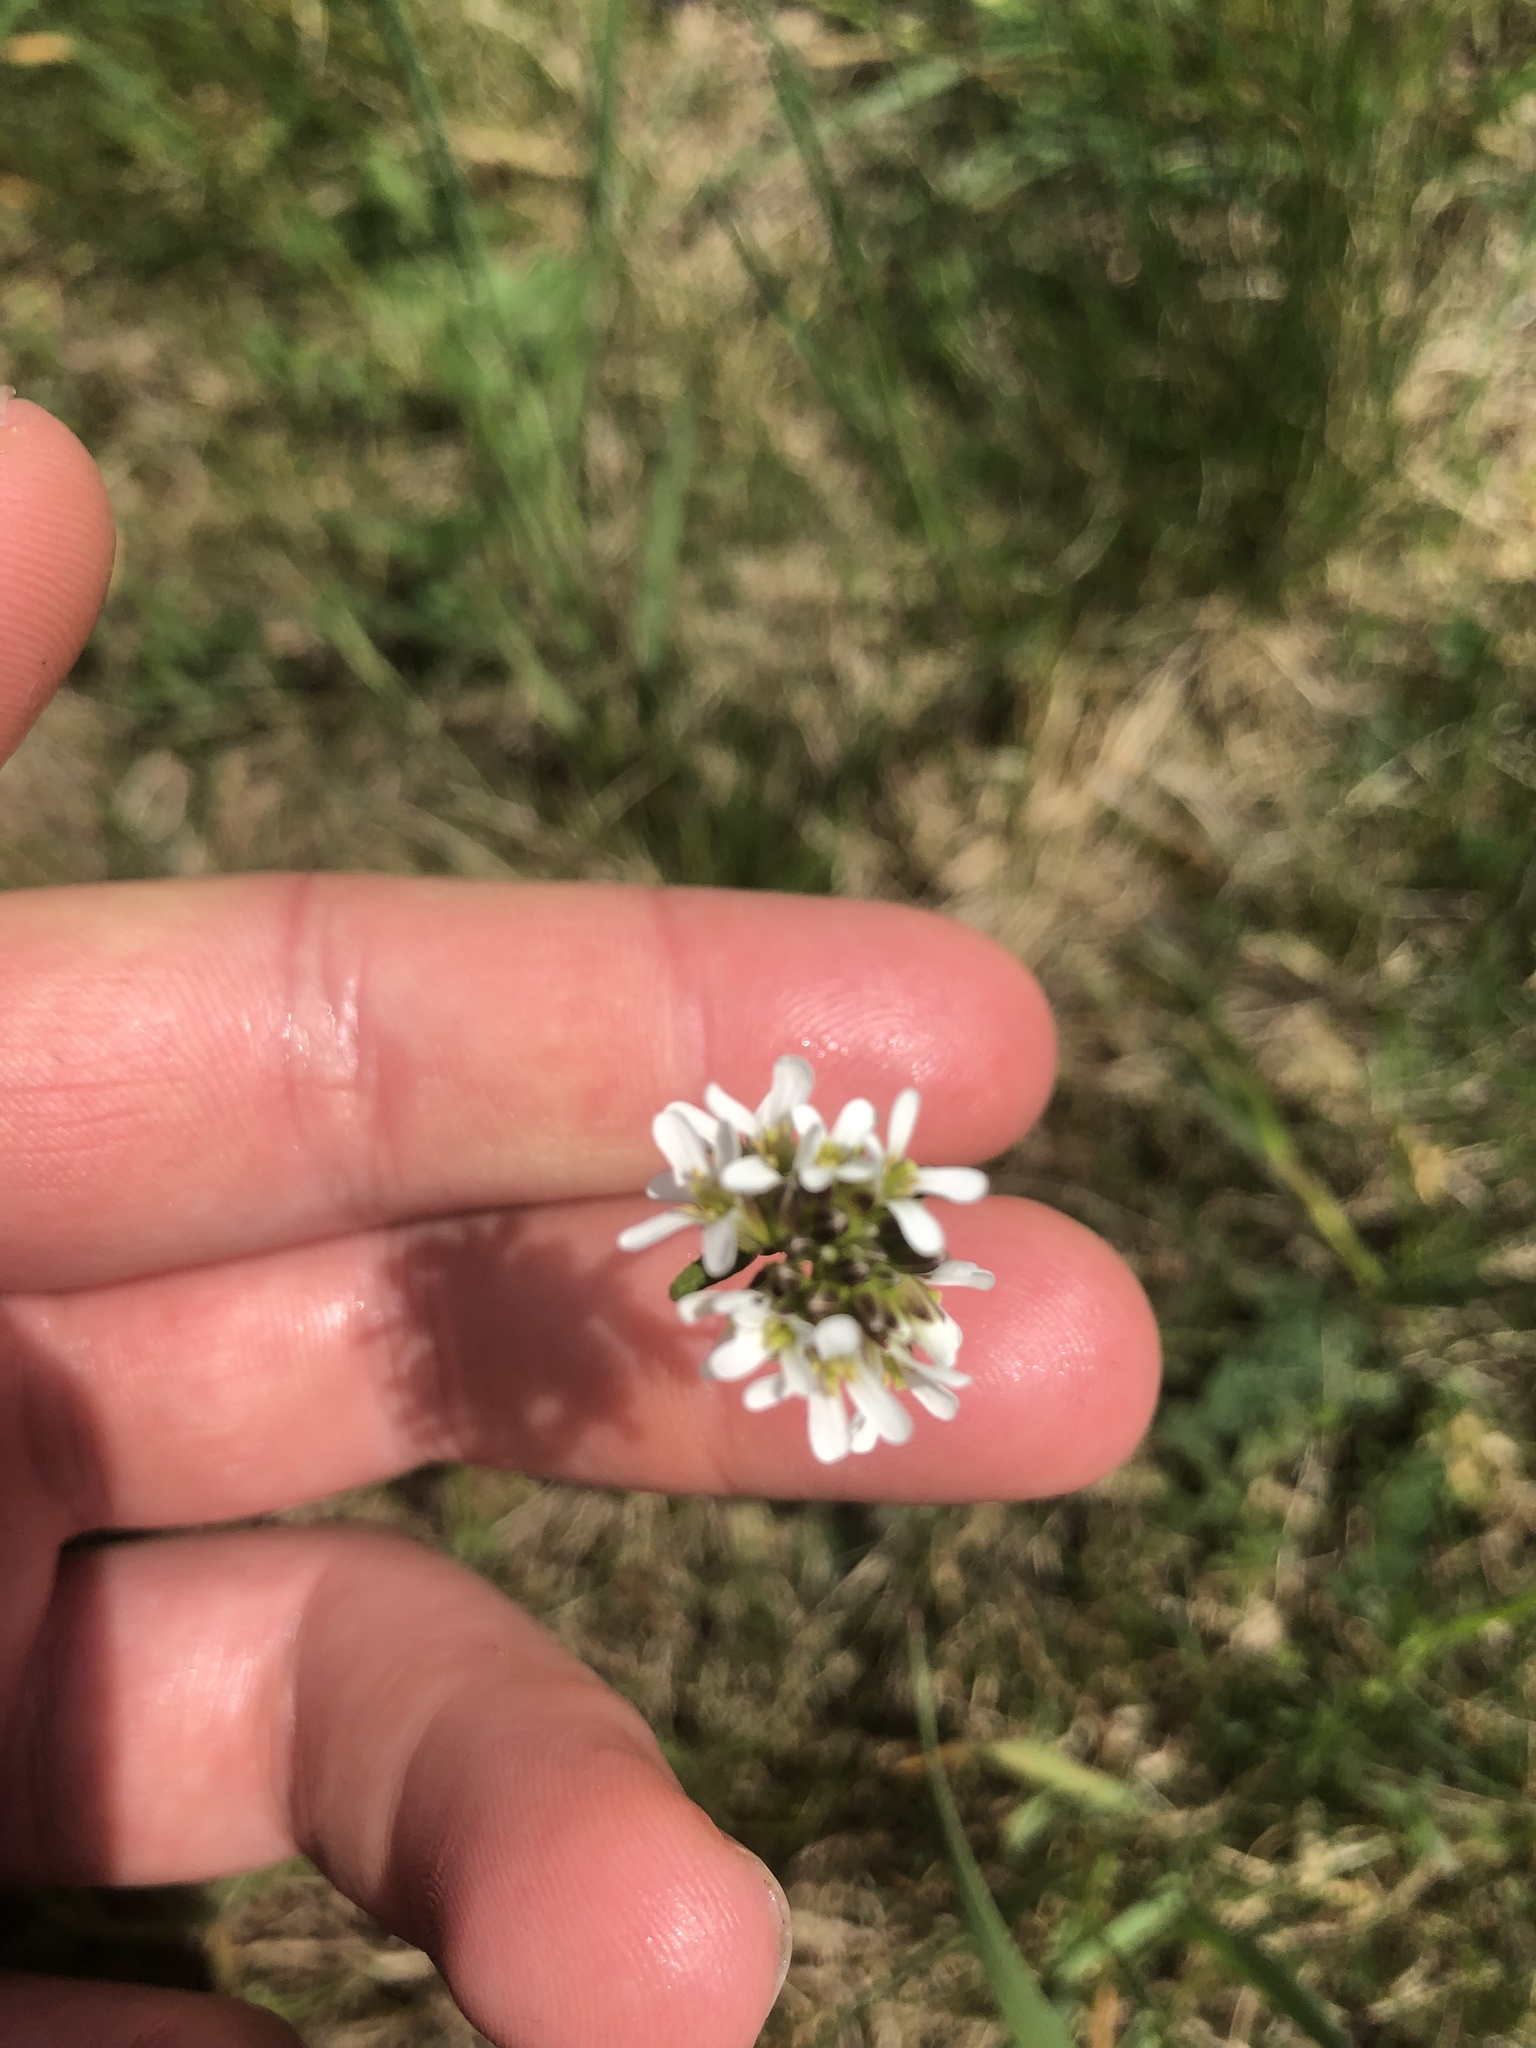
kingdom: Plantae
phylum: Tracheophyta
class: Magnoliopsida
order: Brassicales
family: Brassicaceae
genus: Arabis
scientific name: Arabis hirsuta
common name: Hairy rock-cress
